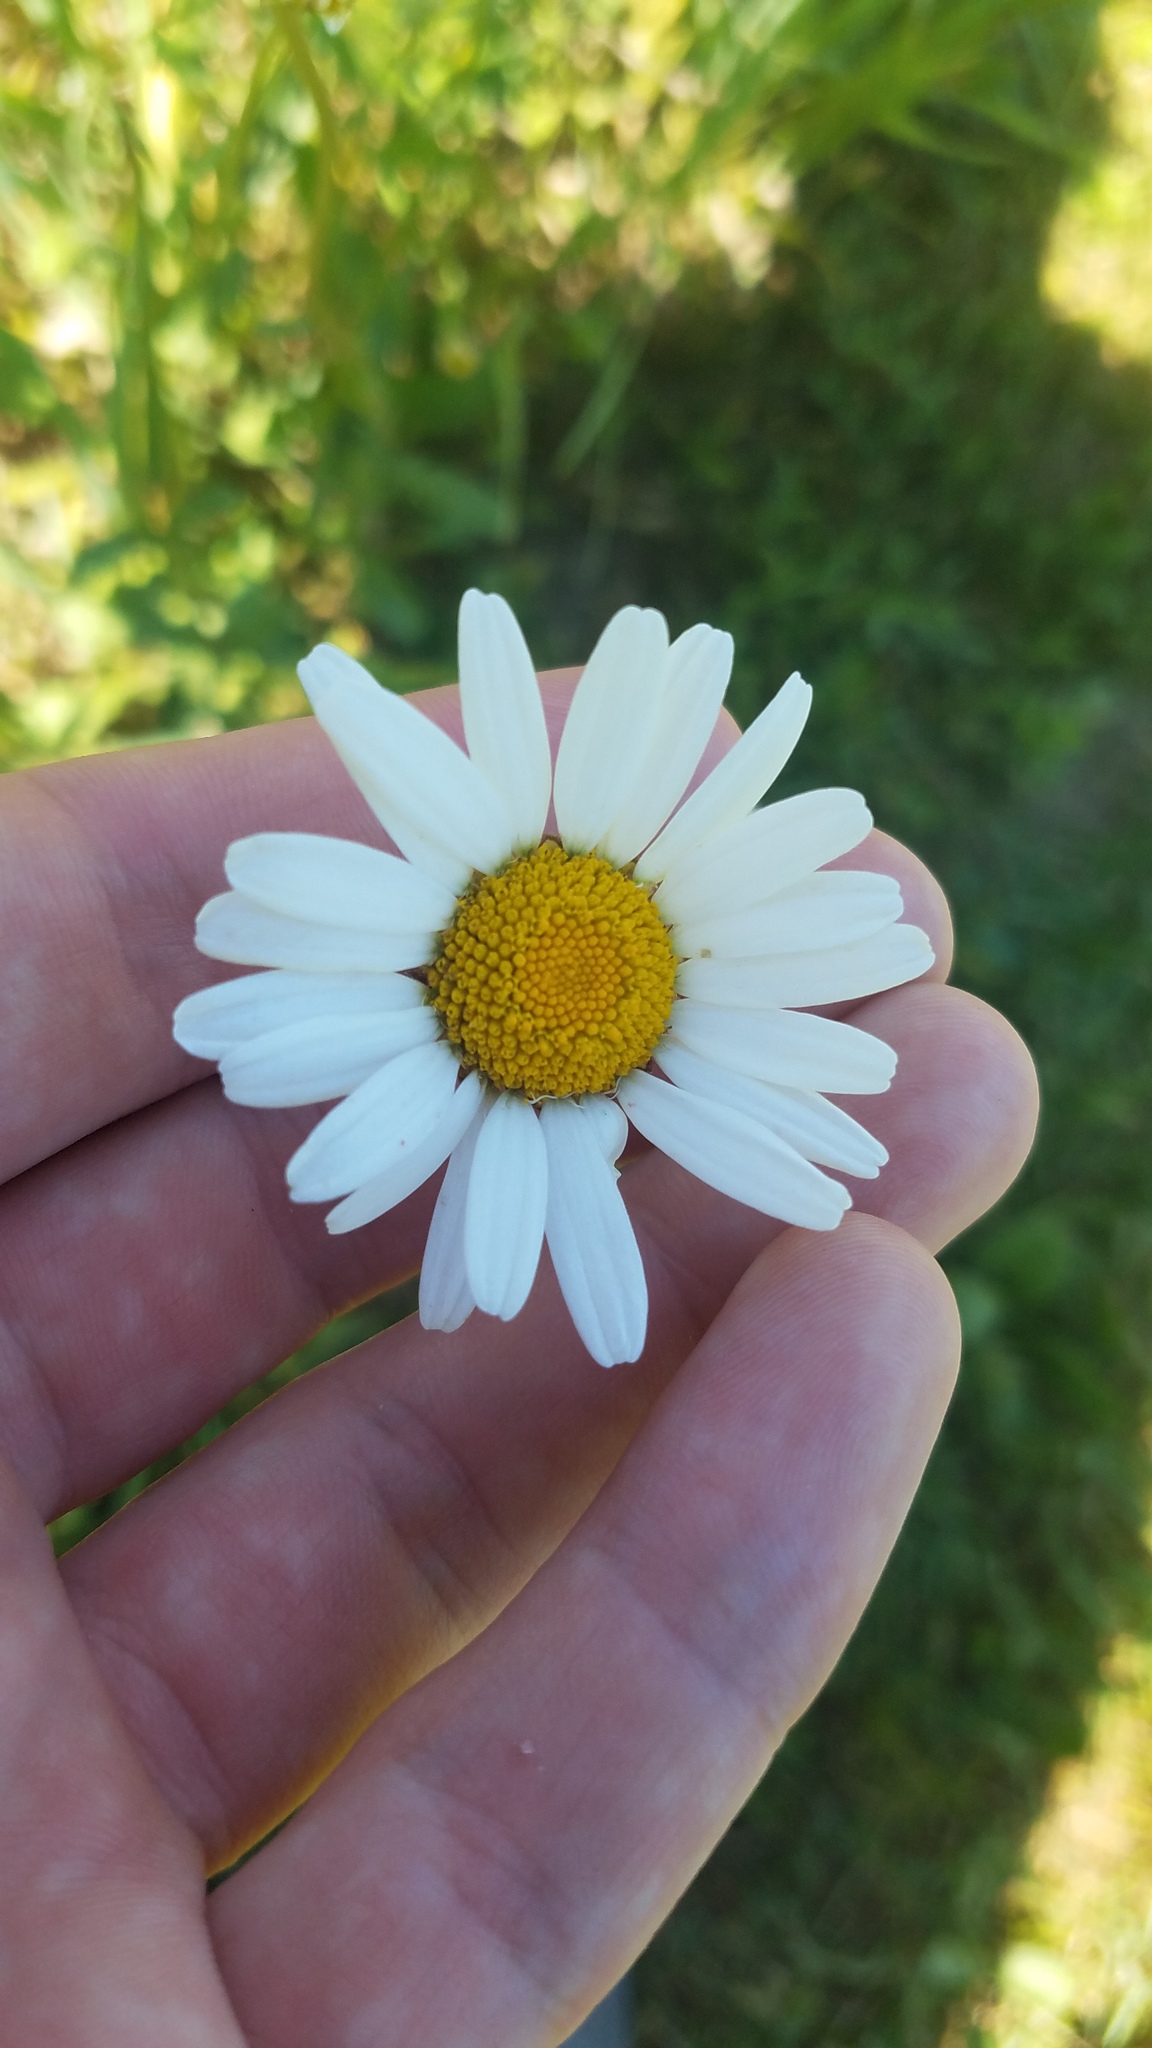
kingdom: Plantae
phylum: Tracheophyta
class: Magnoliopsida
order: Asterales
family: Asteraceae
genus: Leucanthemum
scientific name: Leucanthemum vulgare
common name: Oxeye daisy
